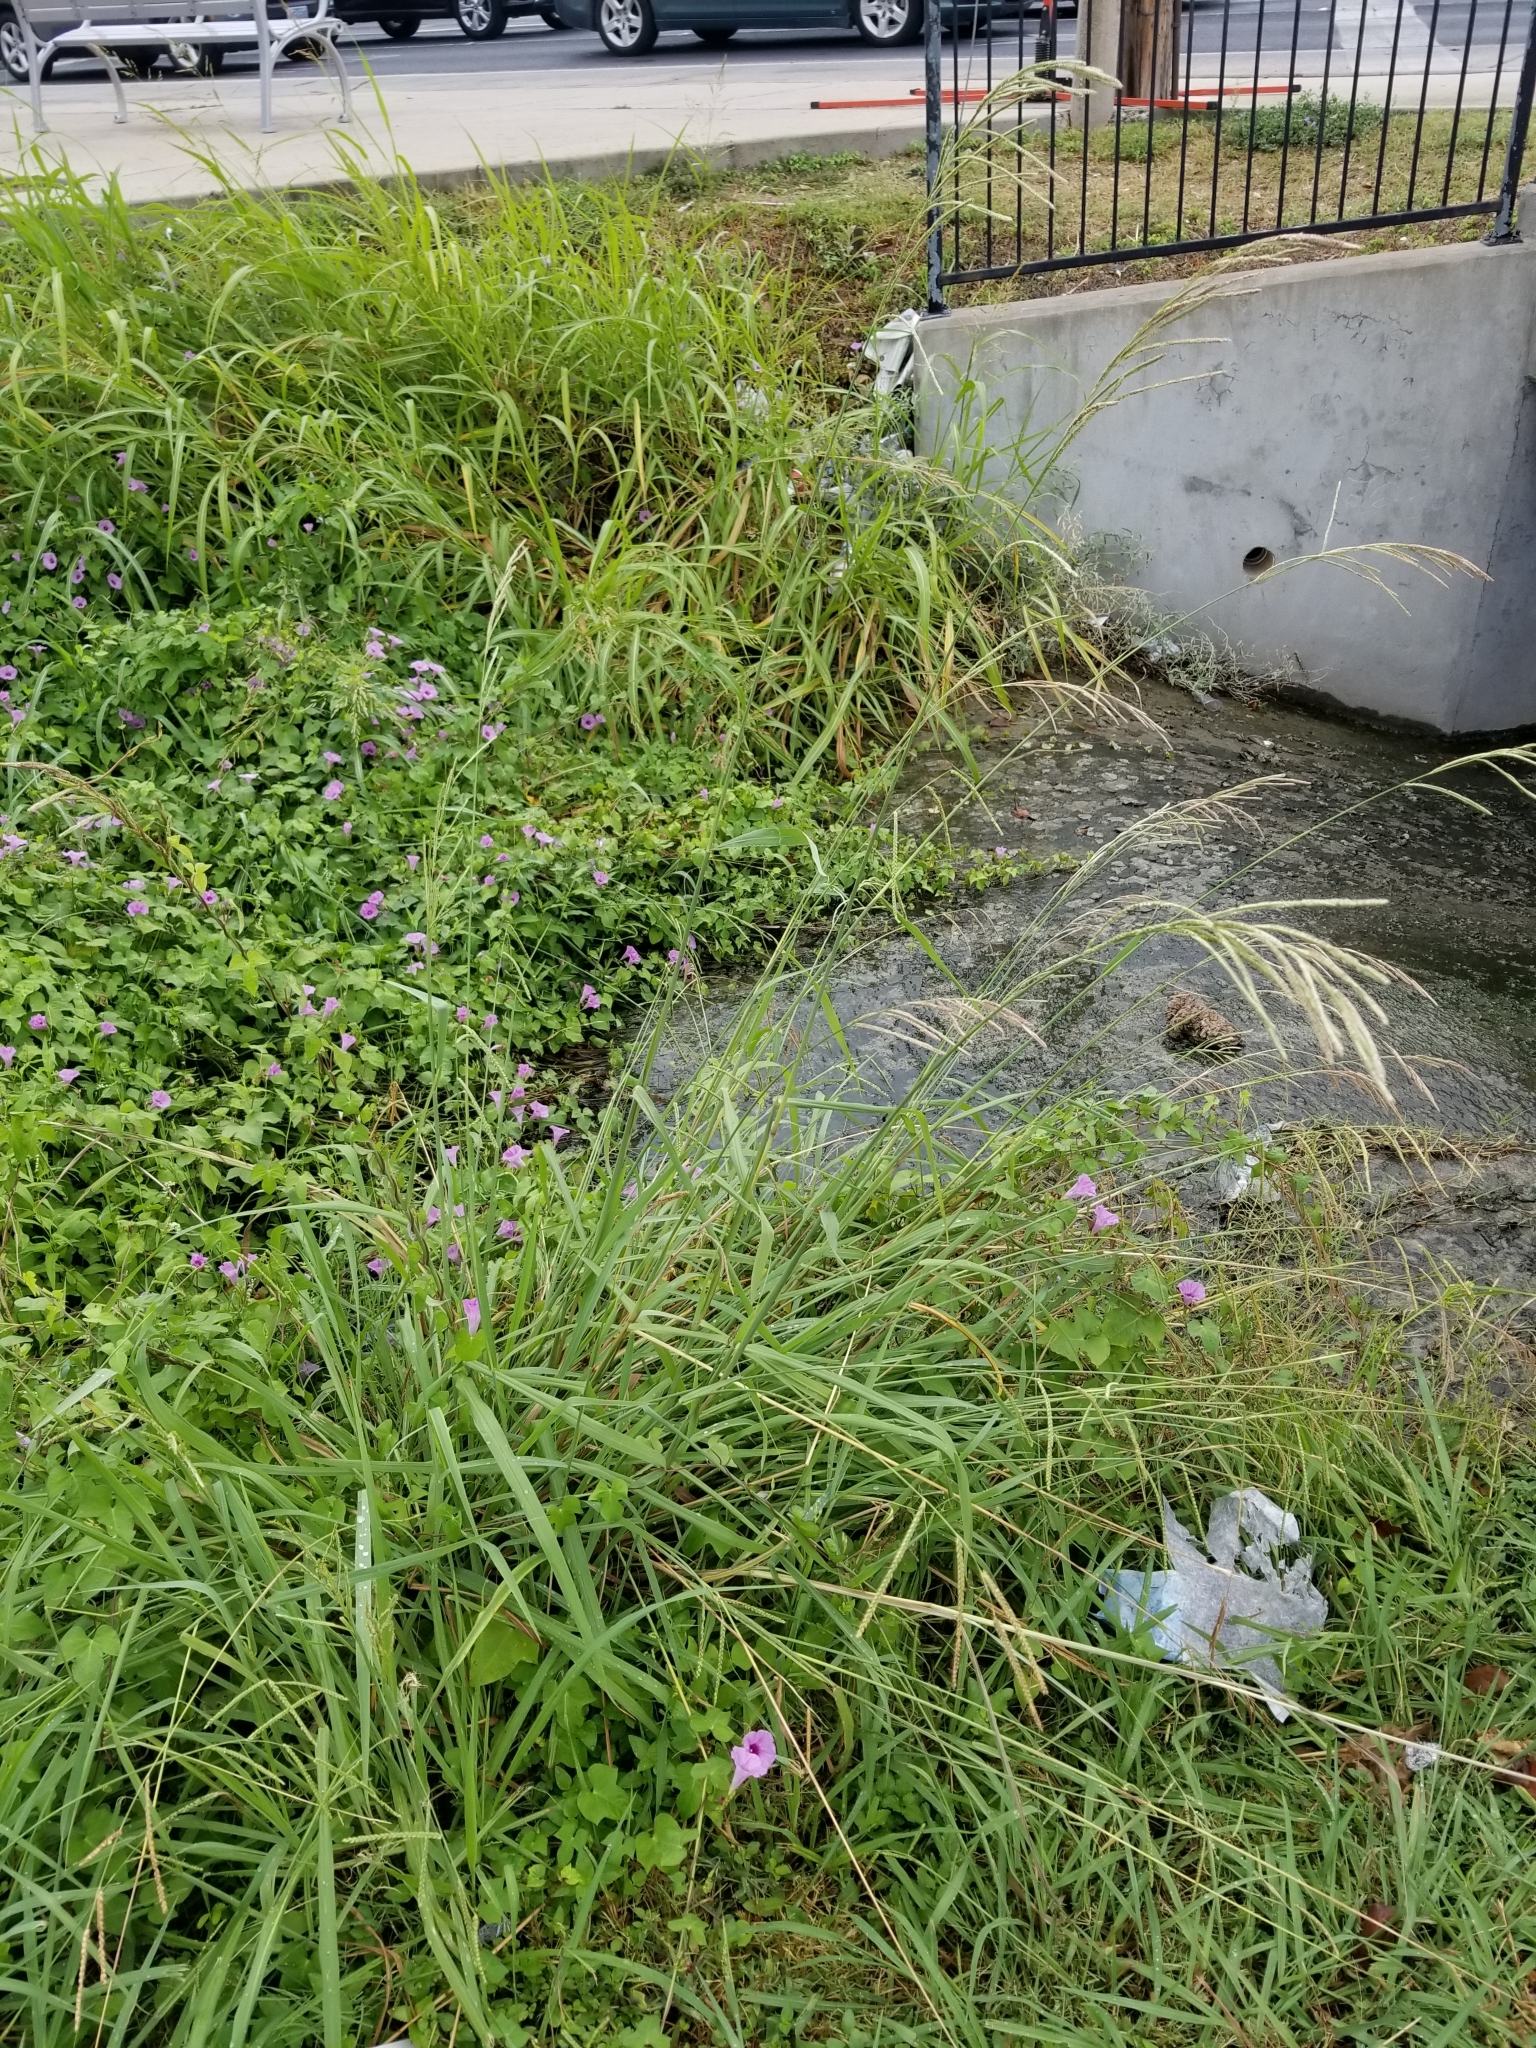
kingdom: Plantae
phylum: Tracheophyta
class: Liliopsida
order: Poales
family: Poaceae
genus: Paspalum
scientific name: Paspalum urvillei
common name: Vasey's grass
